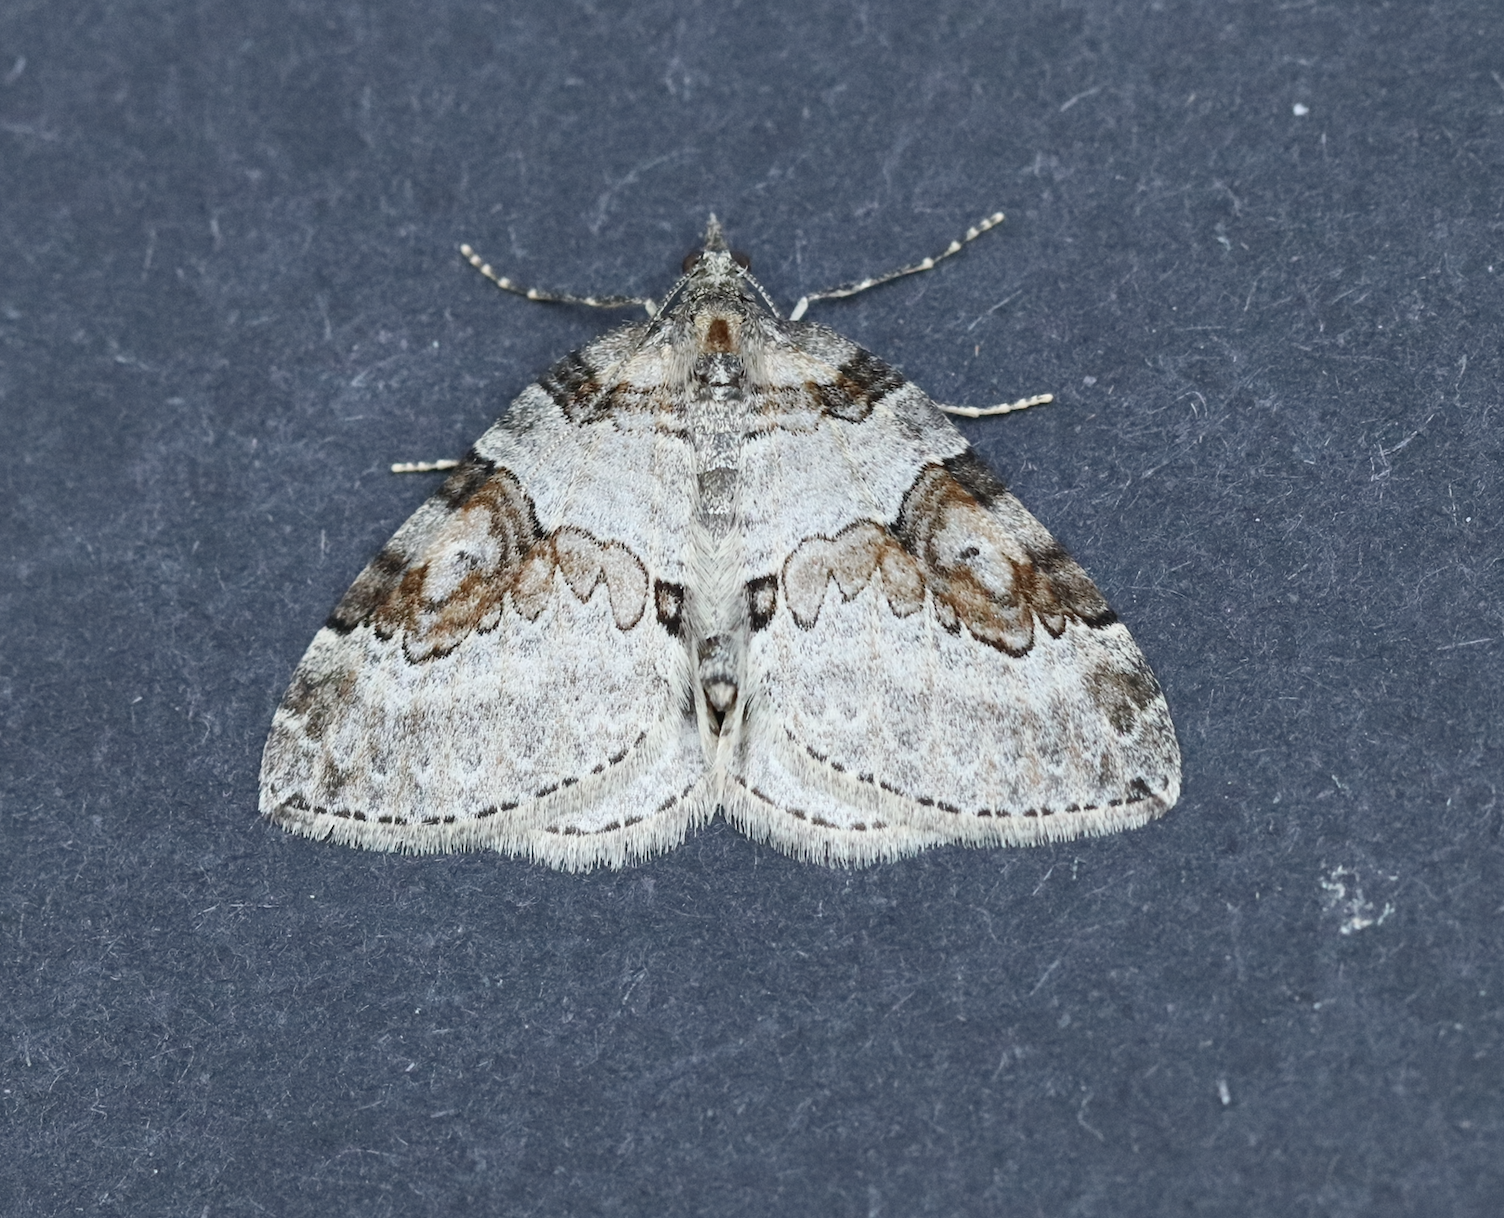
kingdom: Animalia
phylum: Arthropoda
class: Insecta
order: Lepidoptera
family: Geometridae
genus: Plemyria
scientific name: Plemyria georgii
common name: George's carpet moth
